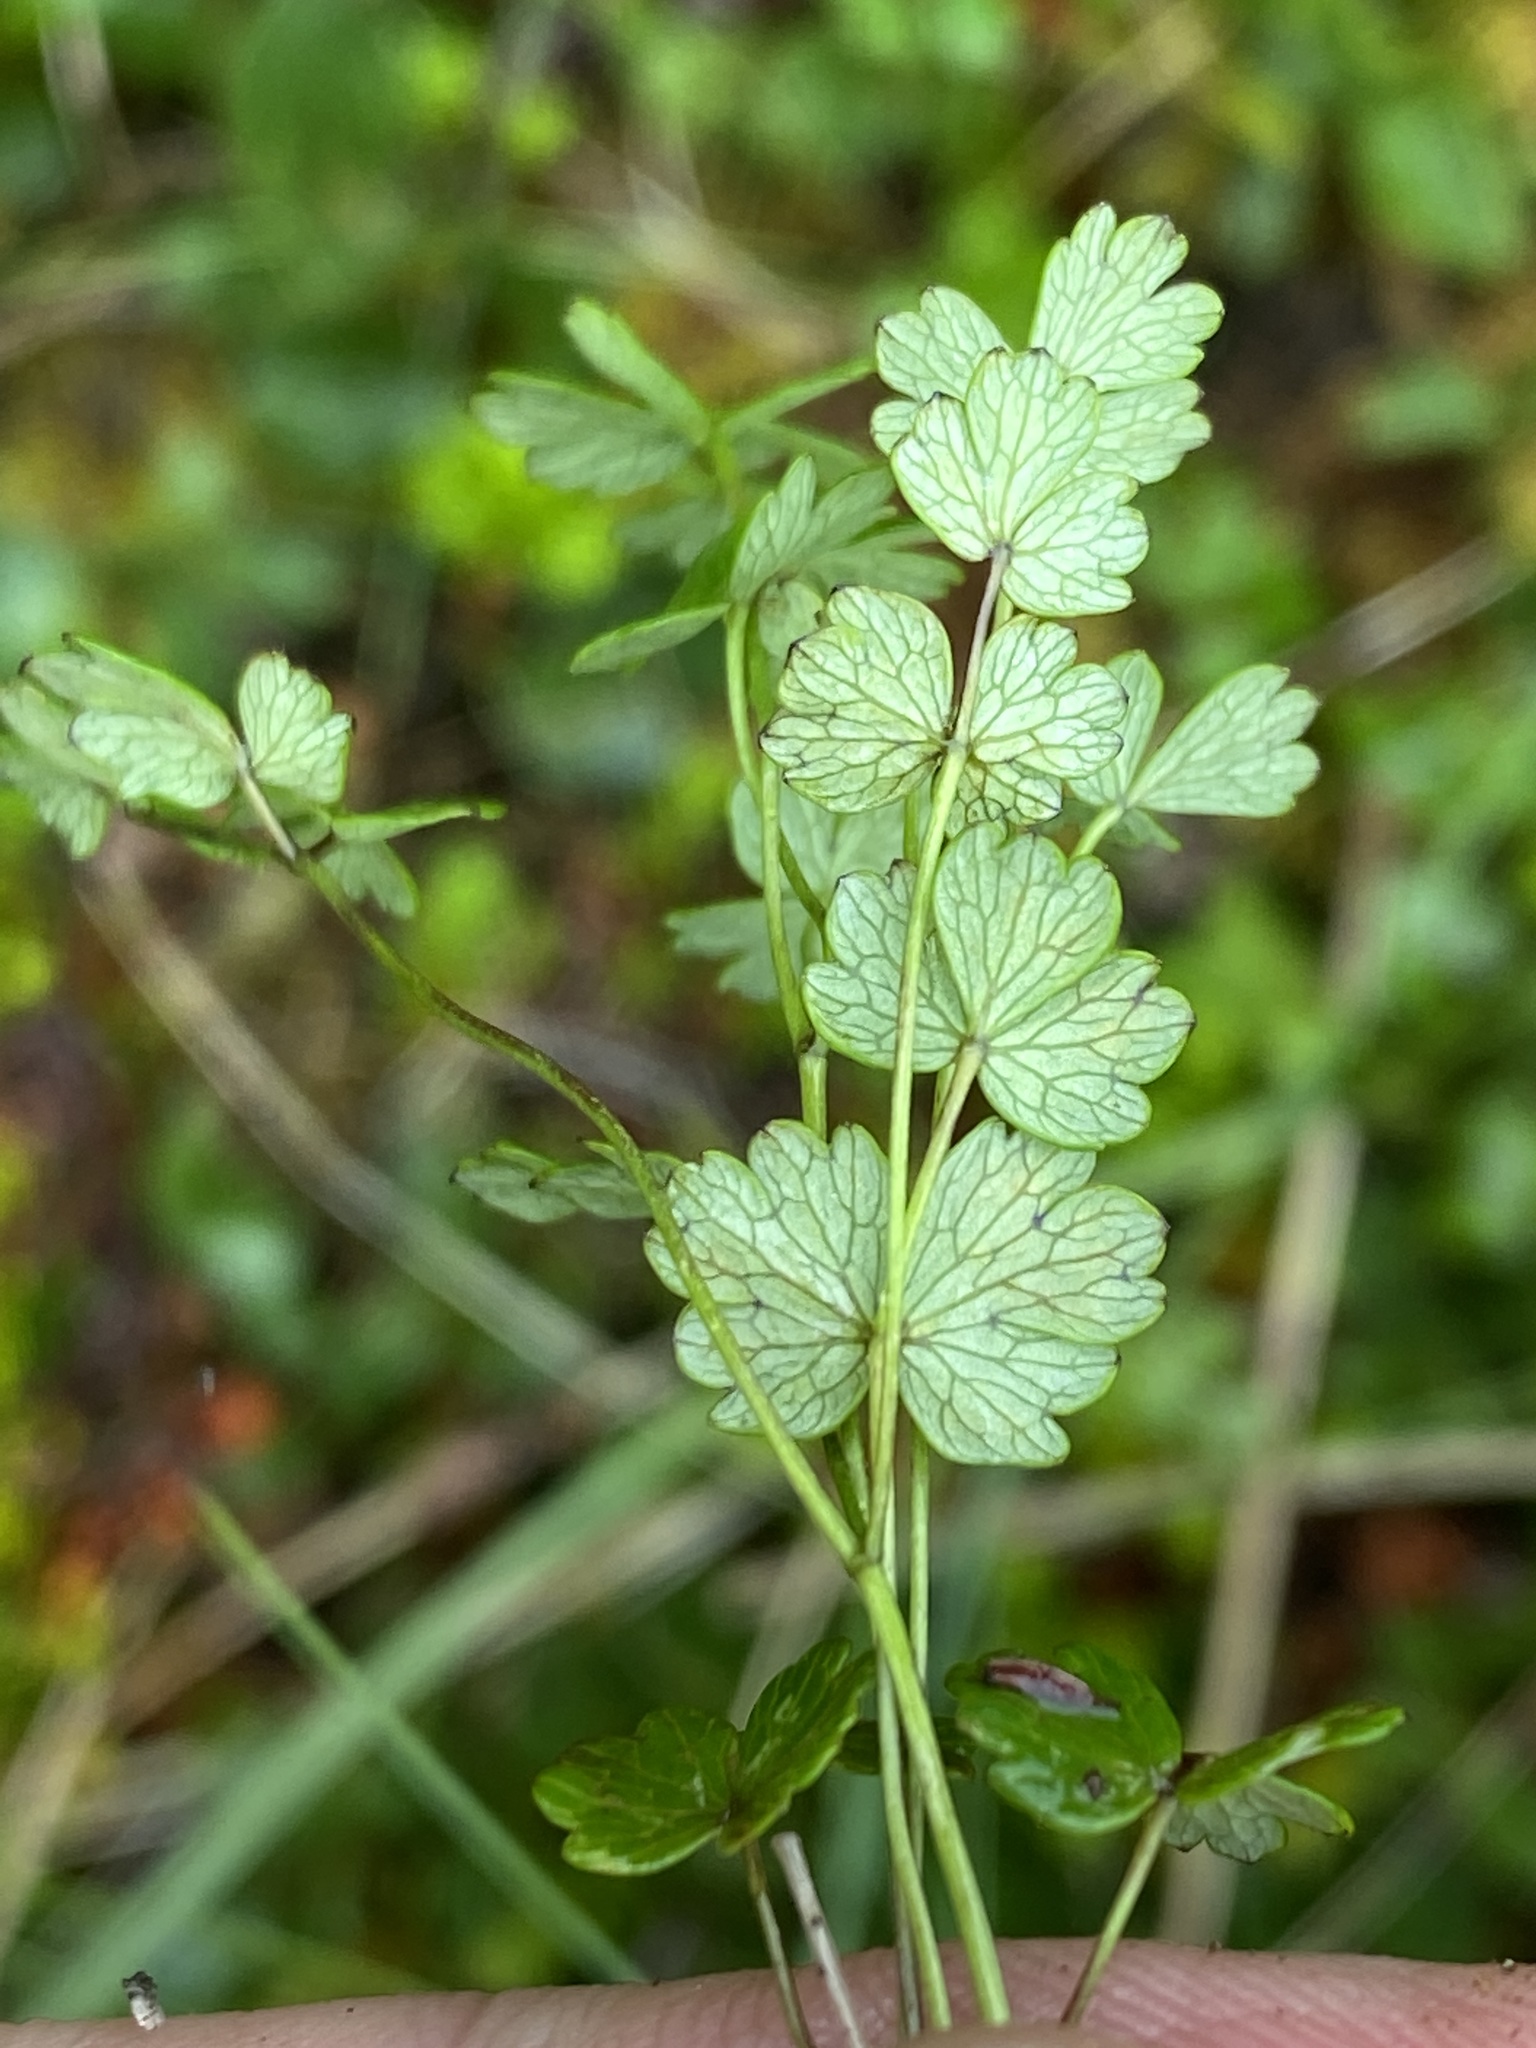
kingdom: Plantae
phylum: Tracheophyta
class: Magnoliopsida
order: Ranunculales
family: Ranunculaceae
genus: Thalictrum
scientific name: Thalictrum alpinum
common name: Alpine meadow-rue
